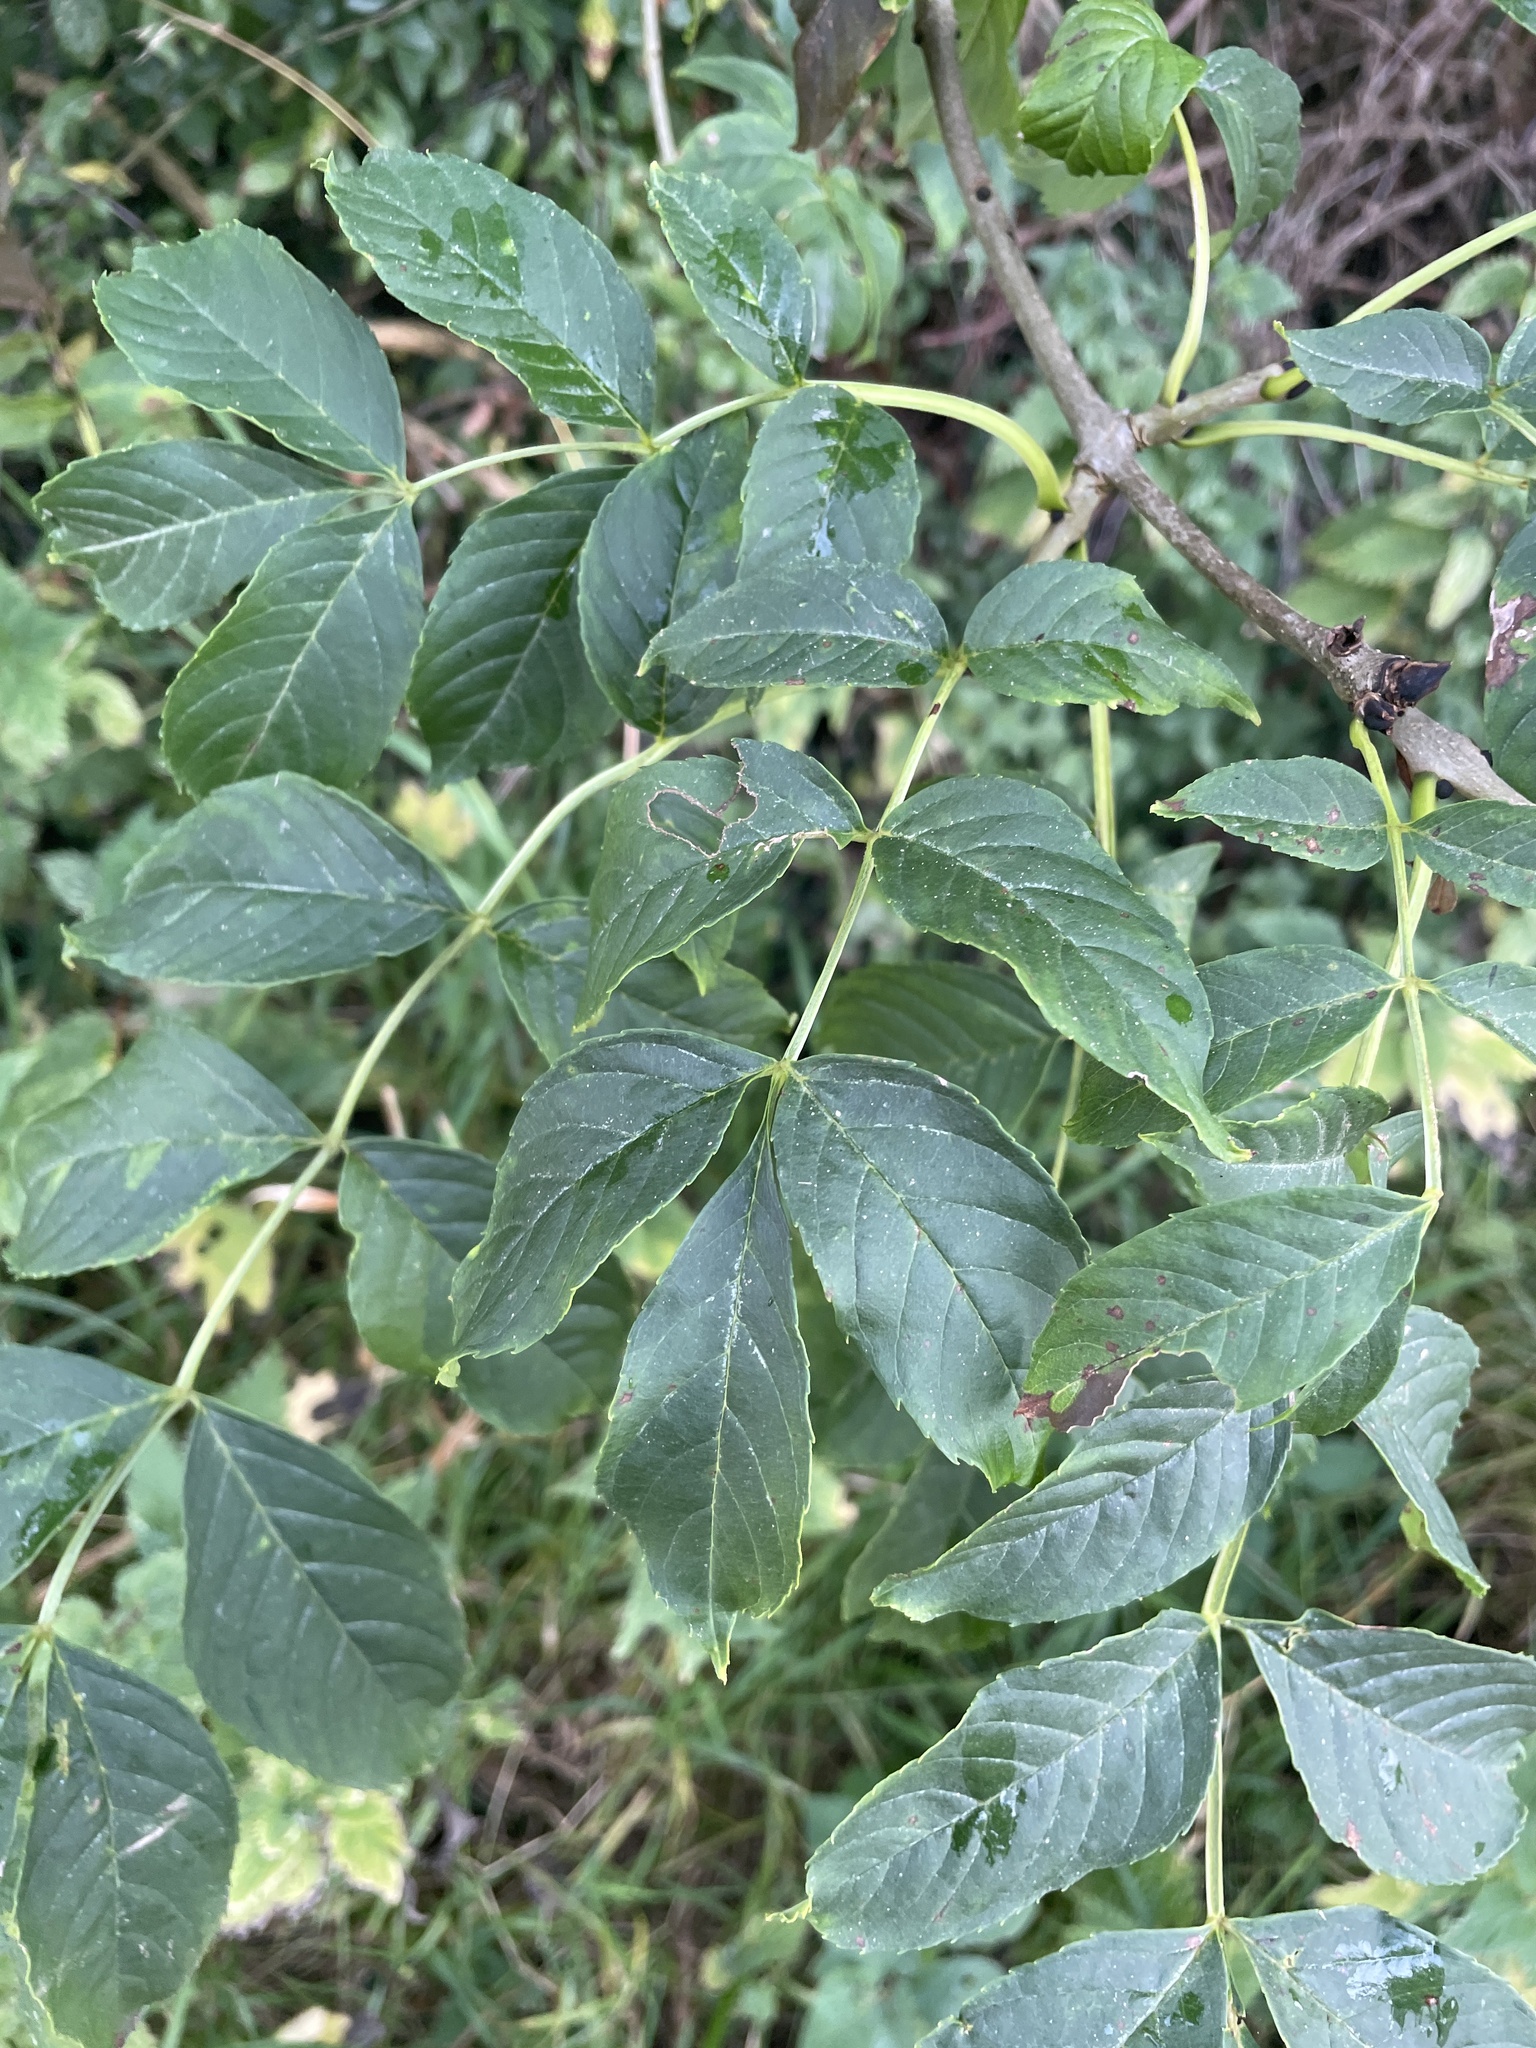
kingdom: Plantae
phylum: Tracheophyta
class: Magnoliopsida
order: Lamiales
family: Oleaceae
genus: Fraxinus
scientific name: Fraxinus excelsior
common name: European ash
